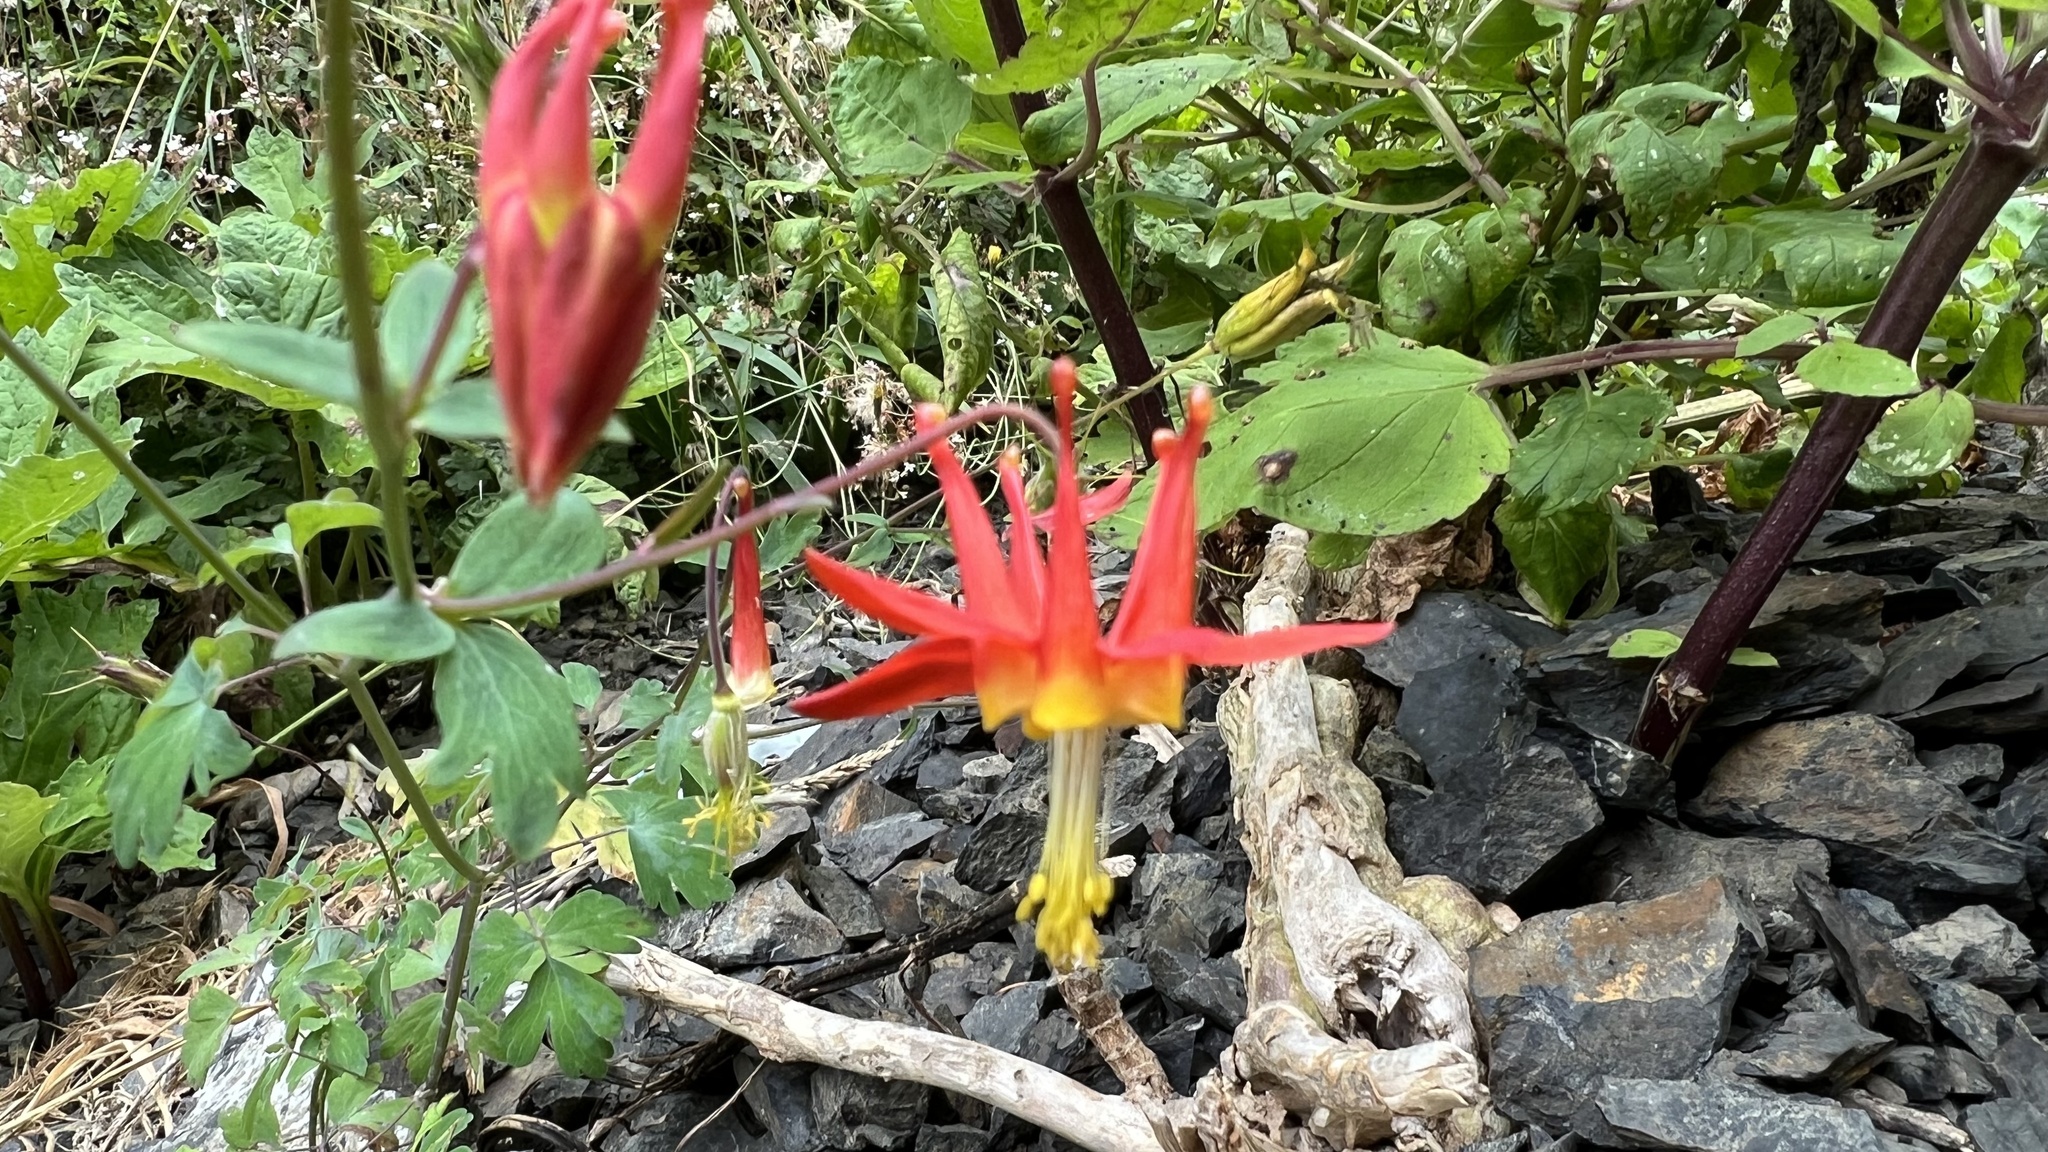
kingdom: Plantae
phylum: Tracheophyta
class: Magnoliopsida
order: Ranunculales
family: Ranunculaceae
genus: Aquilegia
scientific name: Aquilegia formosa
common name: Sitka columbine
